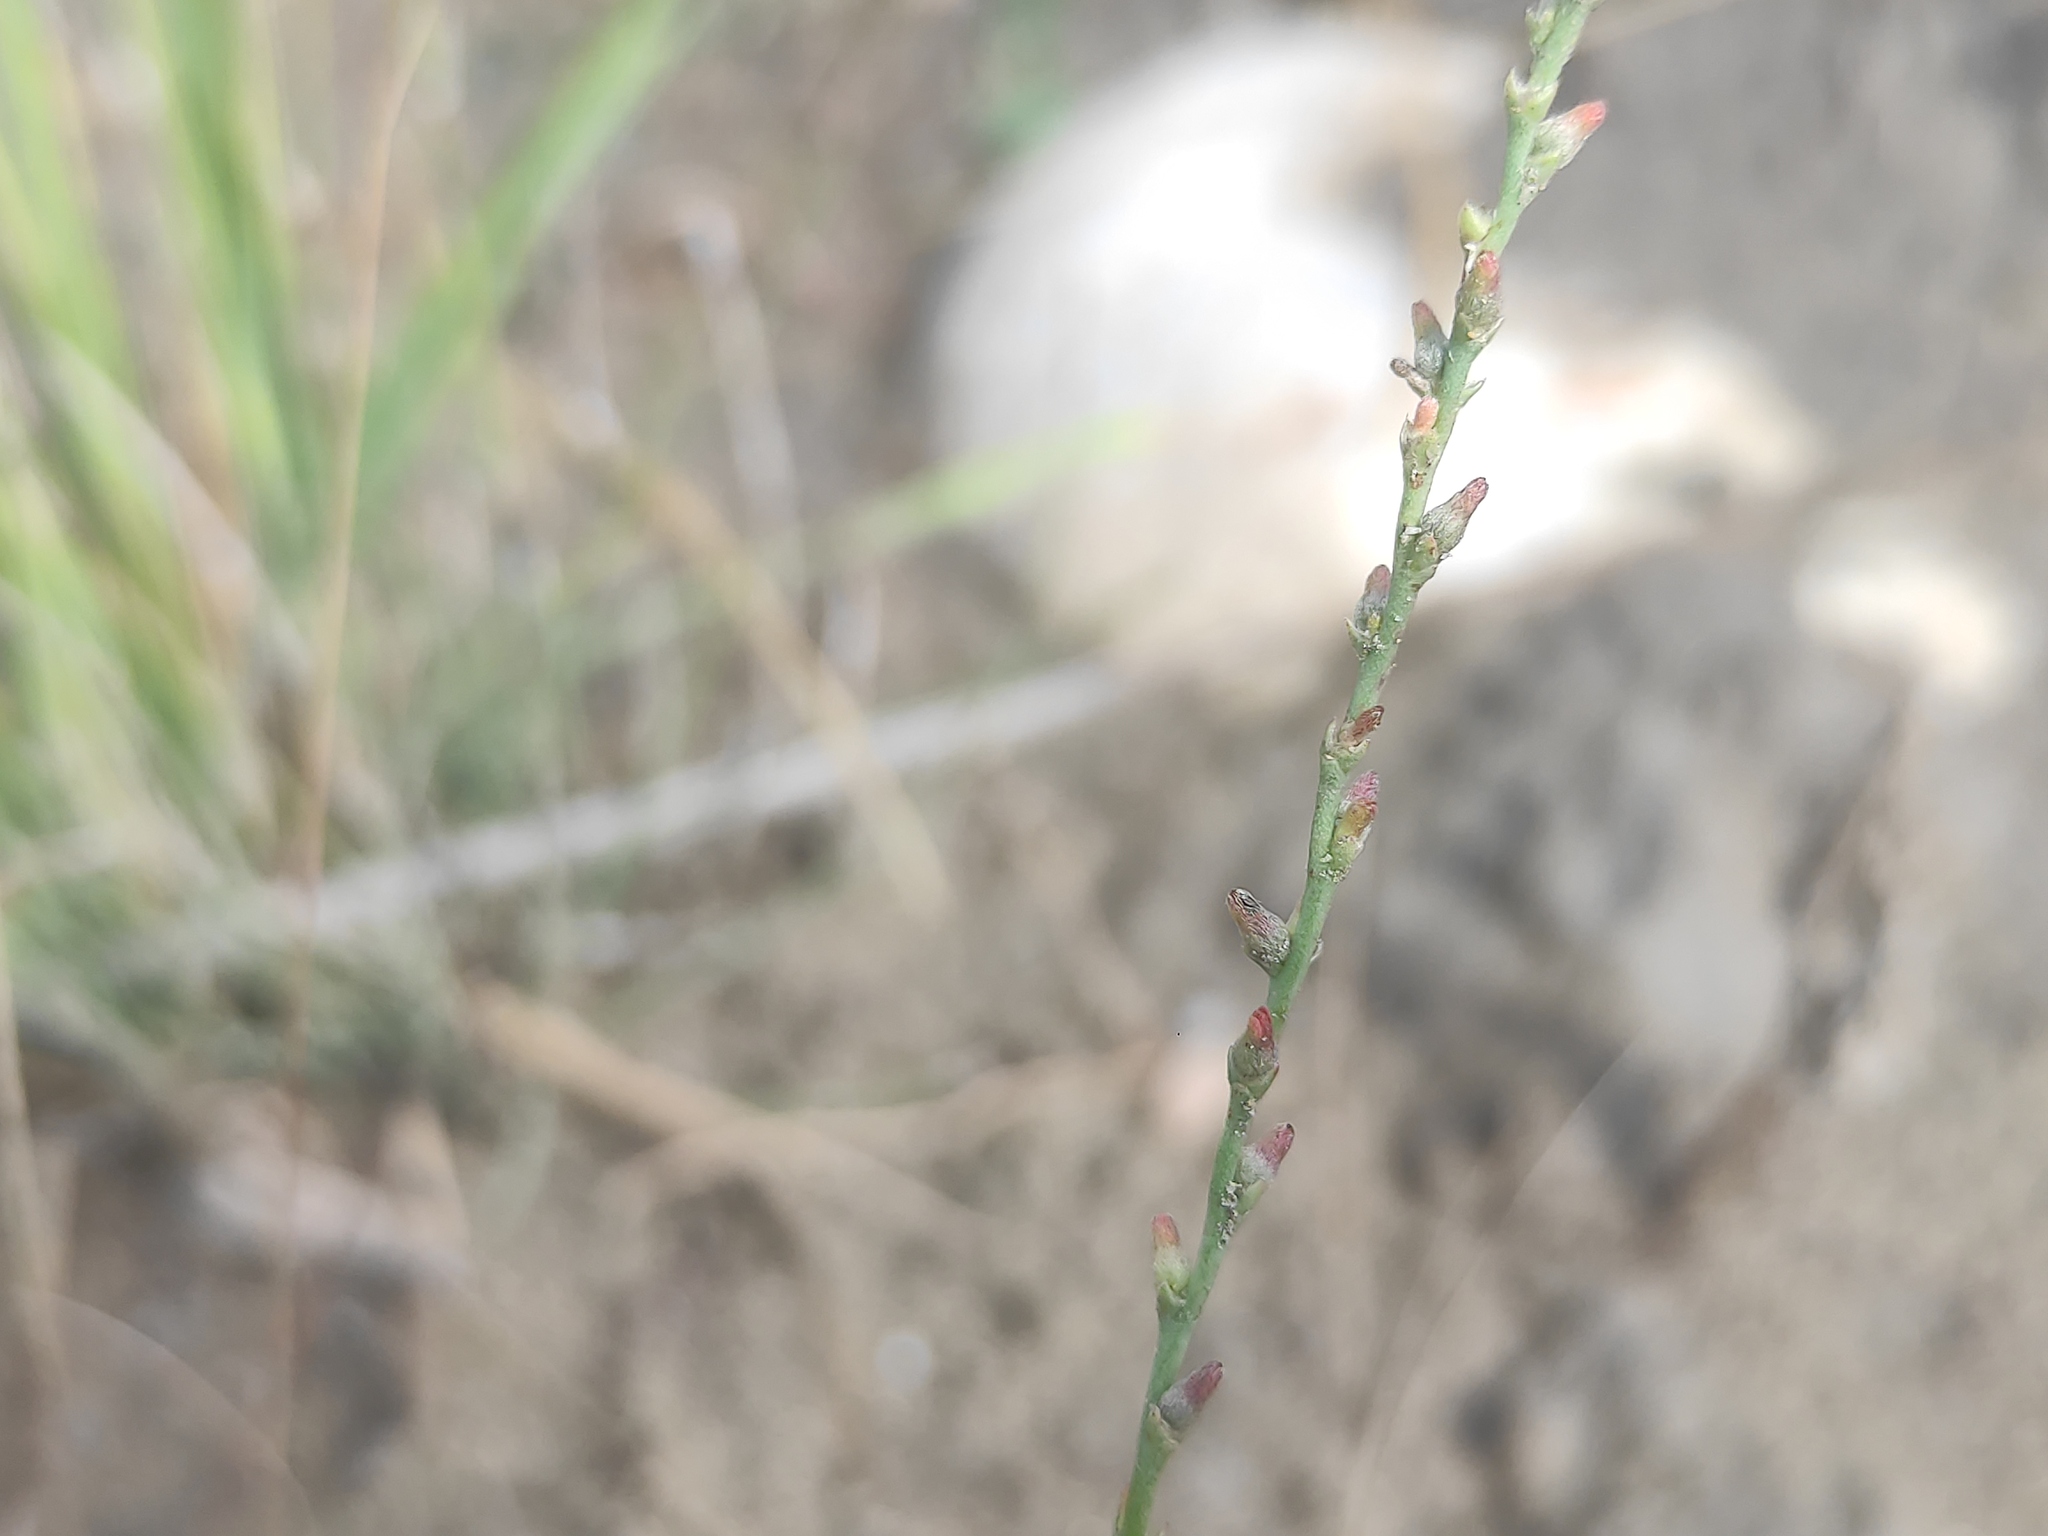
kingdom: Plantae
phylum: Tracheophyta
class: Magnoliopsida
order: Malvales
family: Thymelaeaceae
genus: Thymelaea
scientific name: Thymelaea passerina
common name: Annual thymelaea
